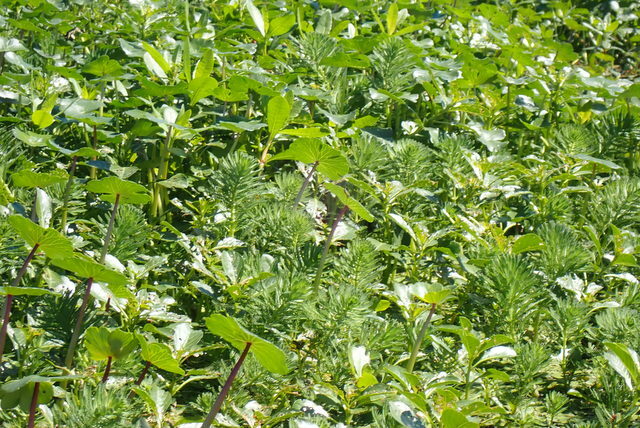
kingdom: Plantae
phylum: Tracheophyta
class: Magnoliopsida
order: Saxifragales
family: Haloragaceae
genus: Myriophyllum
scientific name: Myriophyllum aquaticum
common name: Parrot's feather
